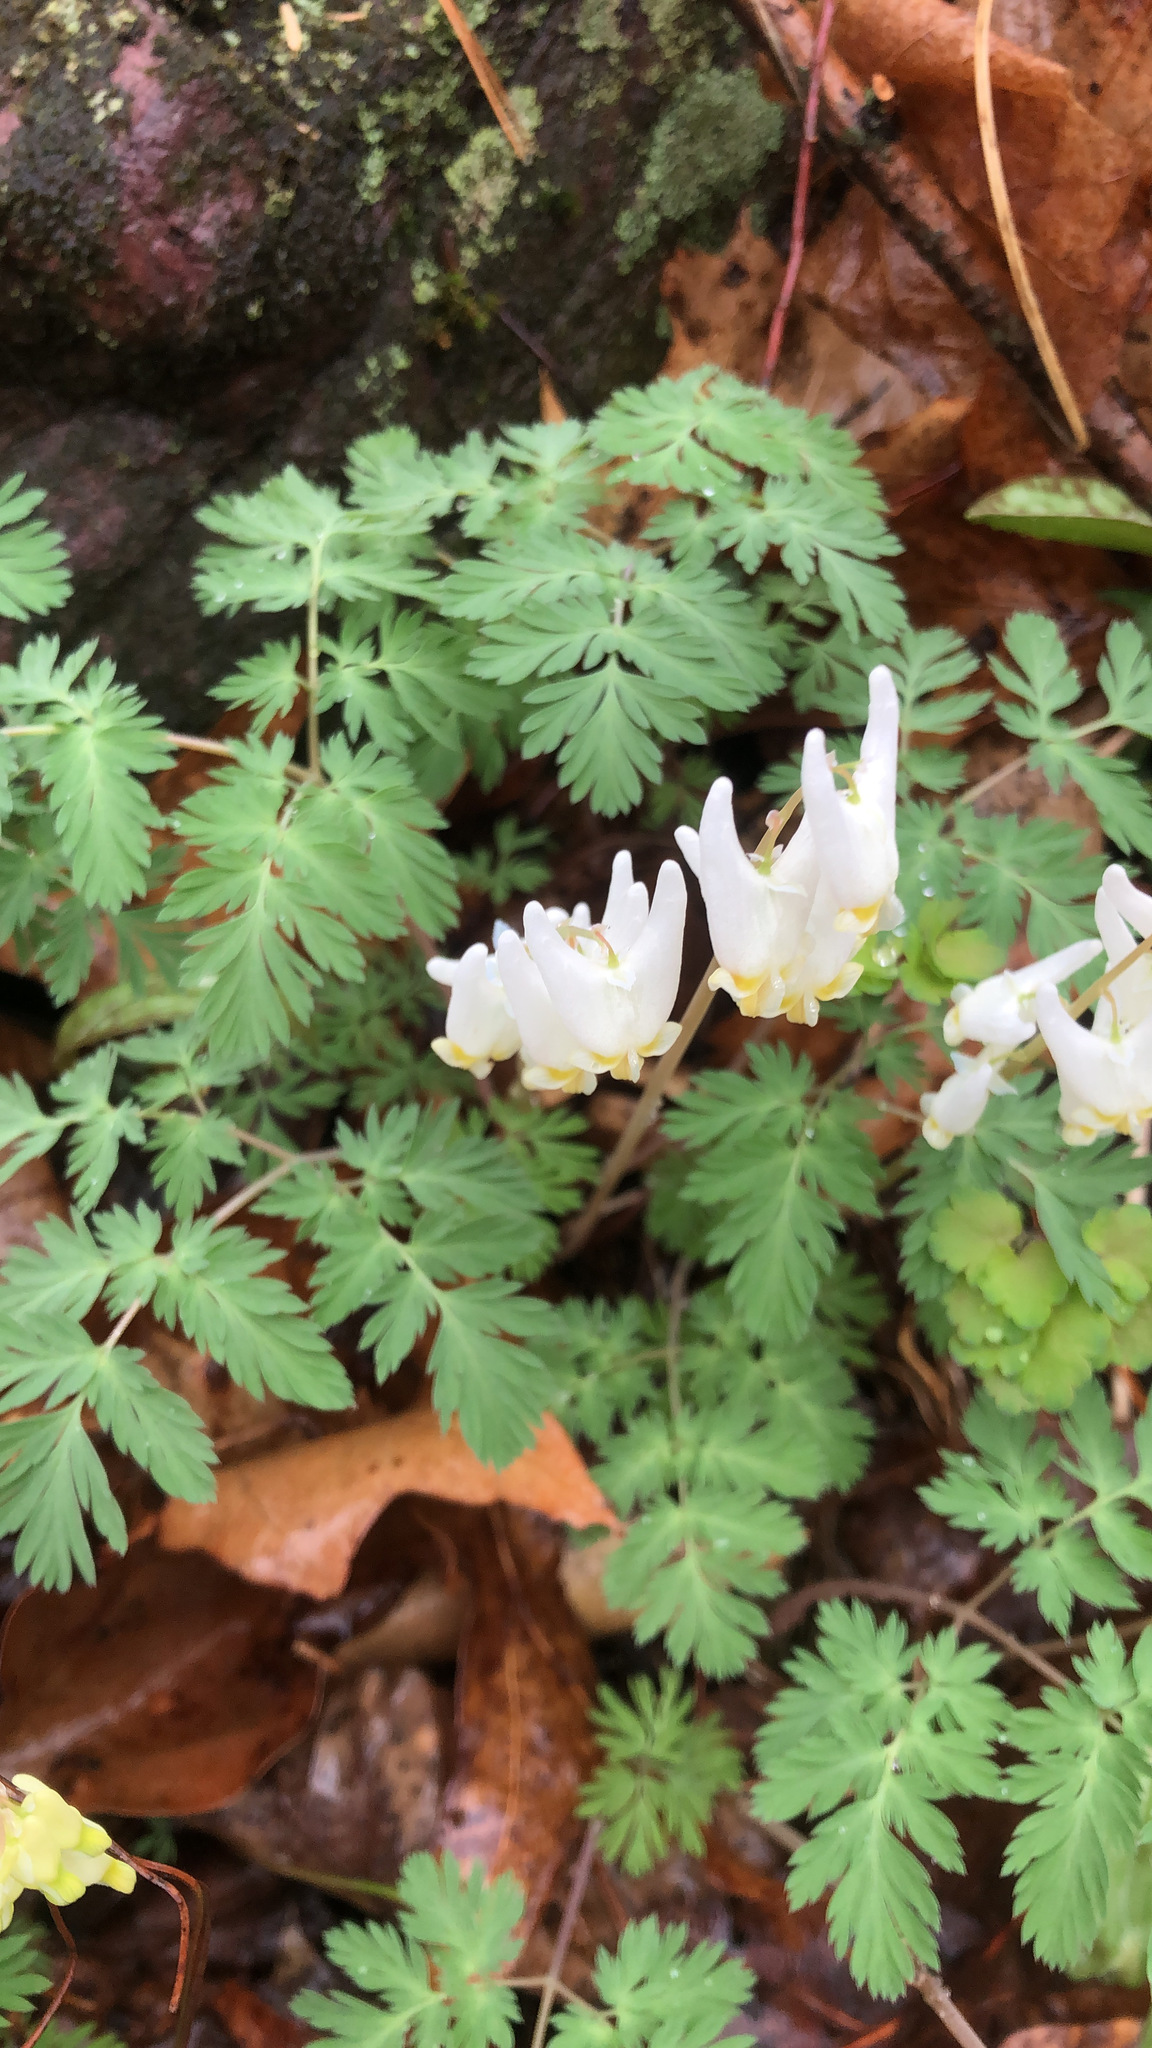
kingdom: Plantae
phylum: Tracheophyta
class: Magnoliopsida
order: Ranunculales
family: Papaveraceae
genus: Dicentra
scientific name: Dicentra cucullaria
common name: Dutchman's breeches
